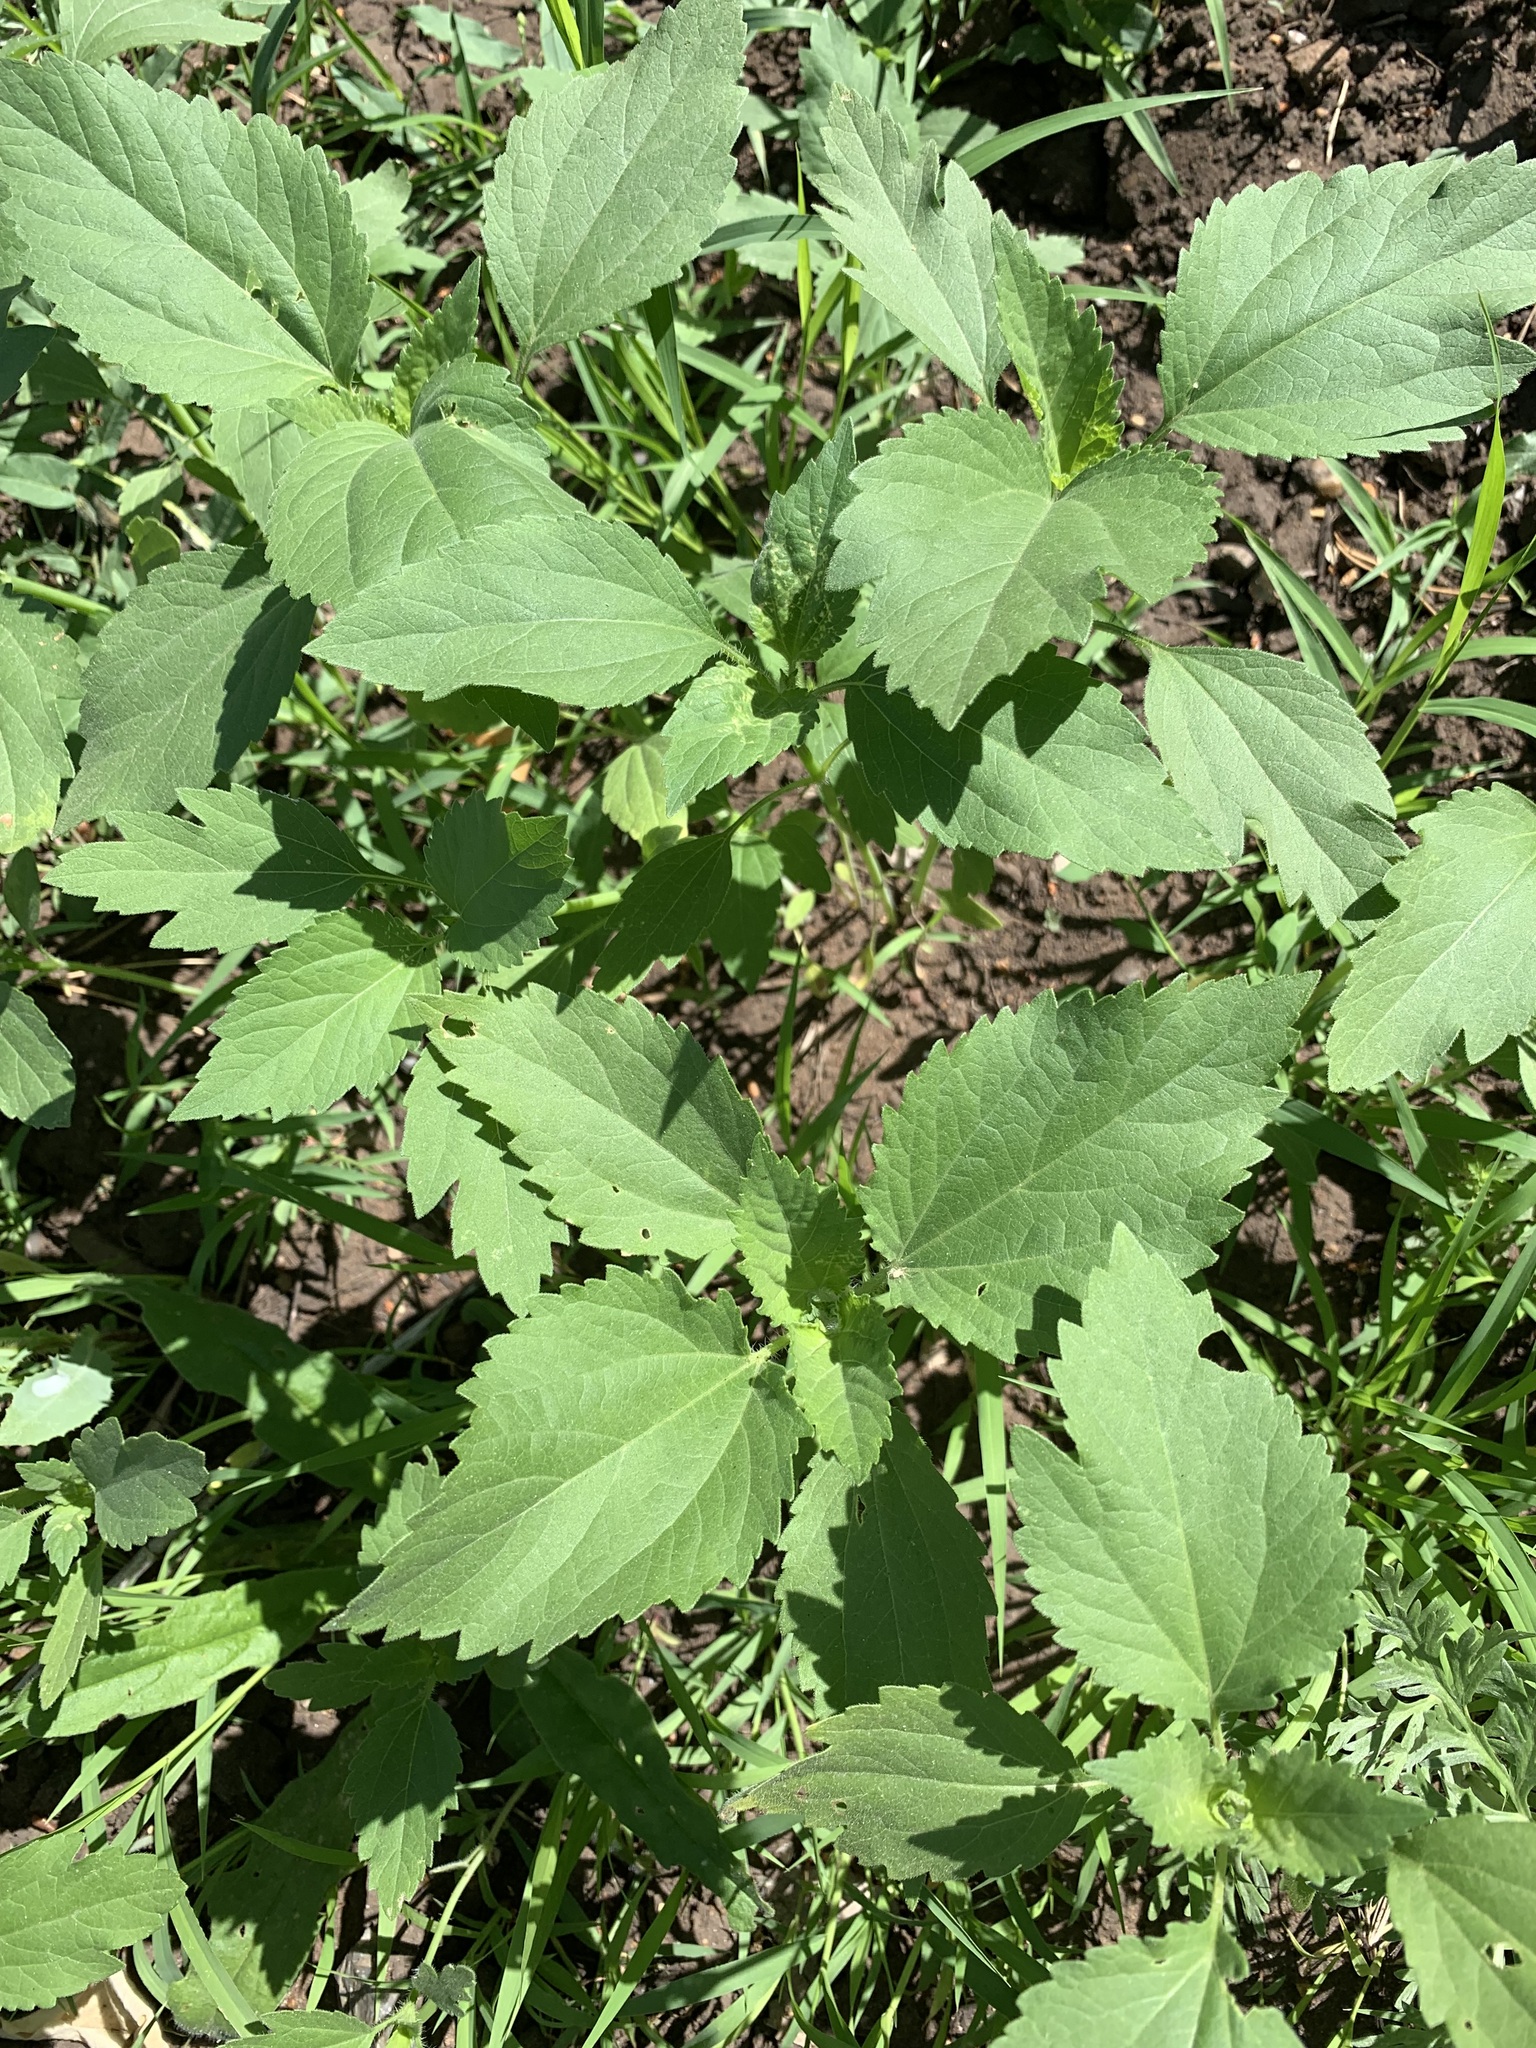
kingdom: Plantae
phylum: Tracheophyta
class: Magnoliopsida
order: Asterales
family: Asteraceae
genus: Cyclachaena
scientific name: Cyclachaena xanthiifolia
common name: Giant sumpweed
